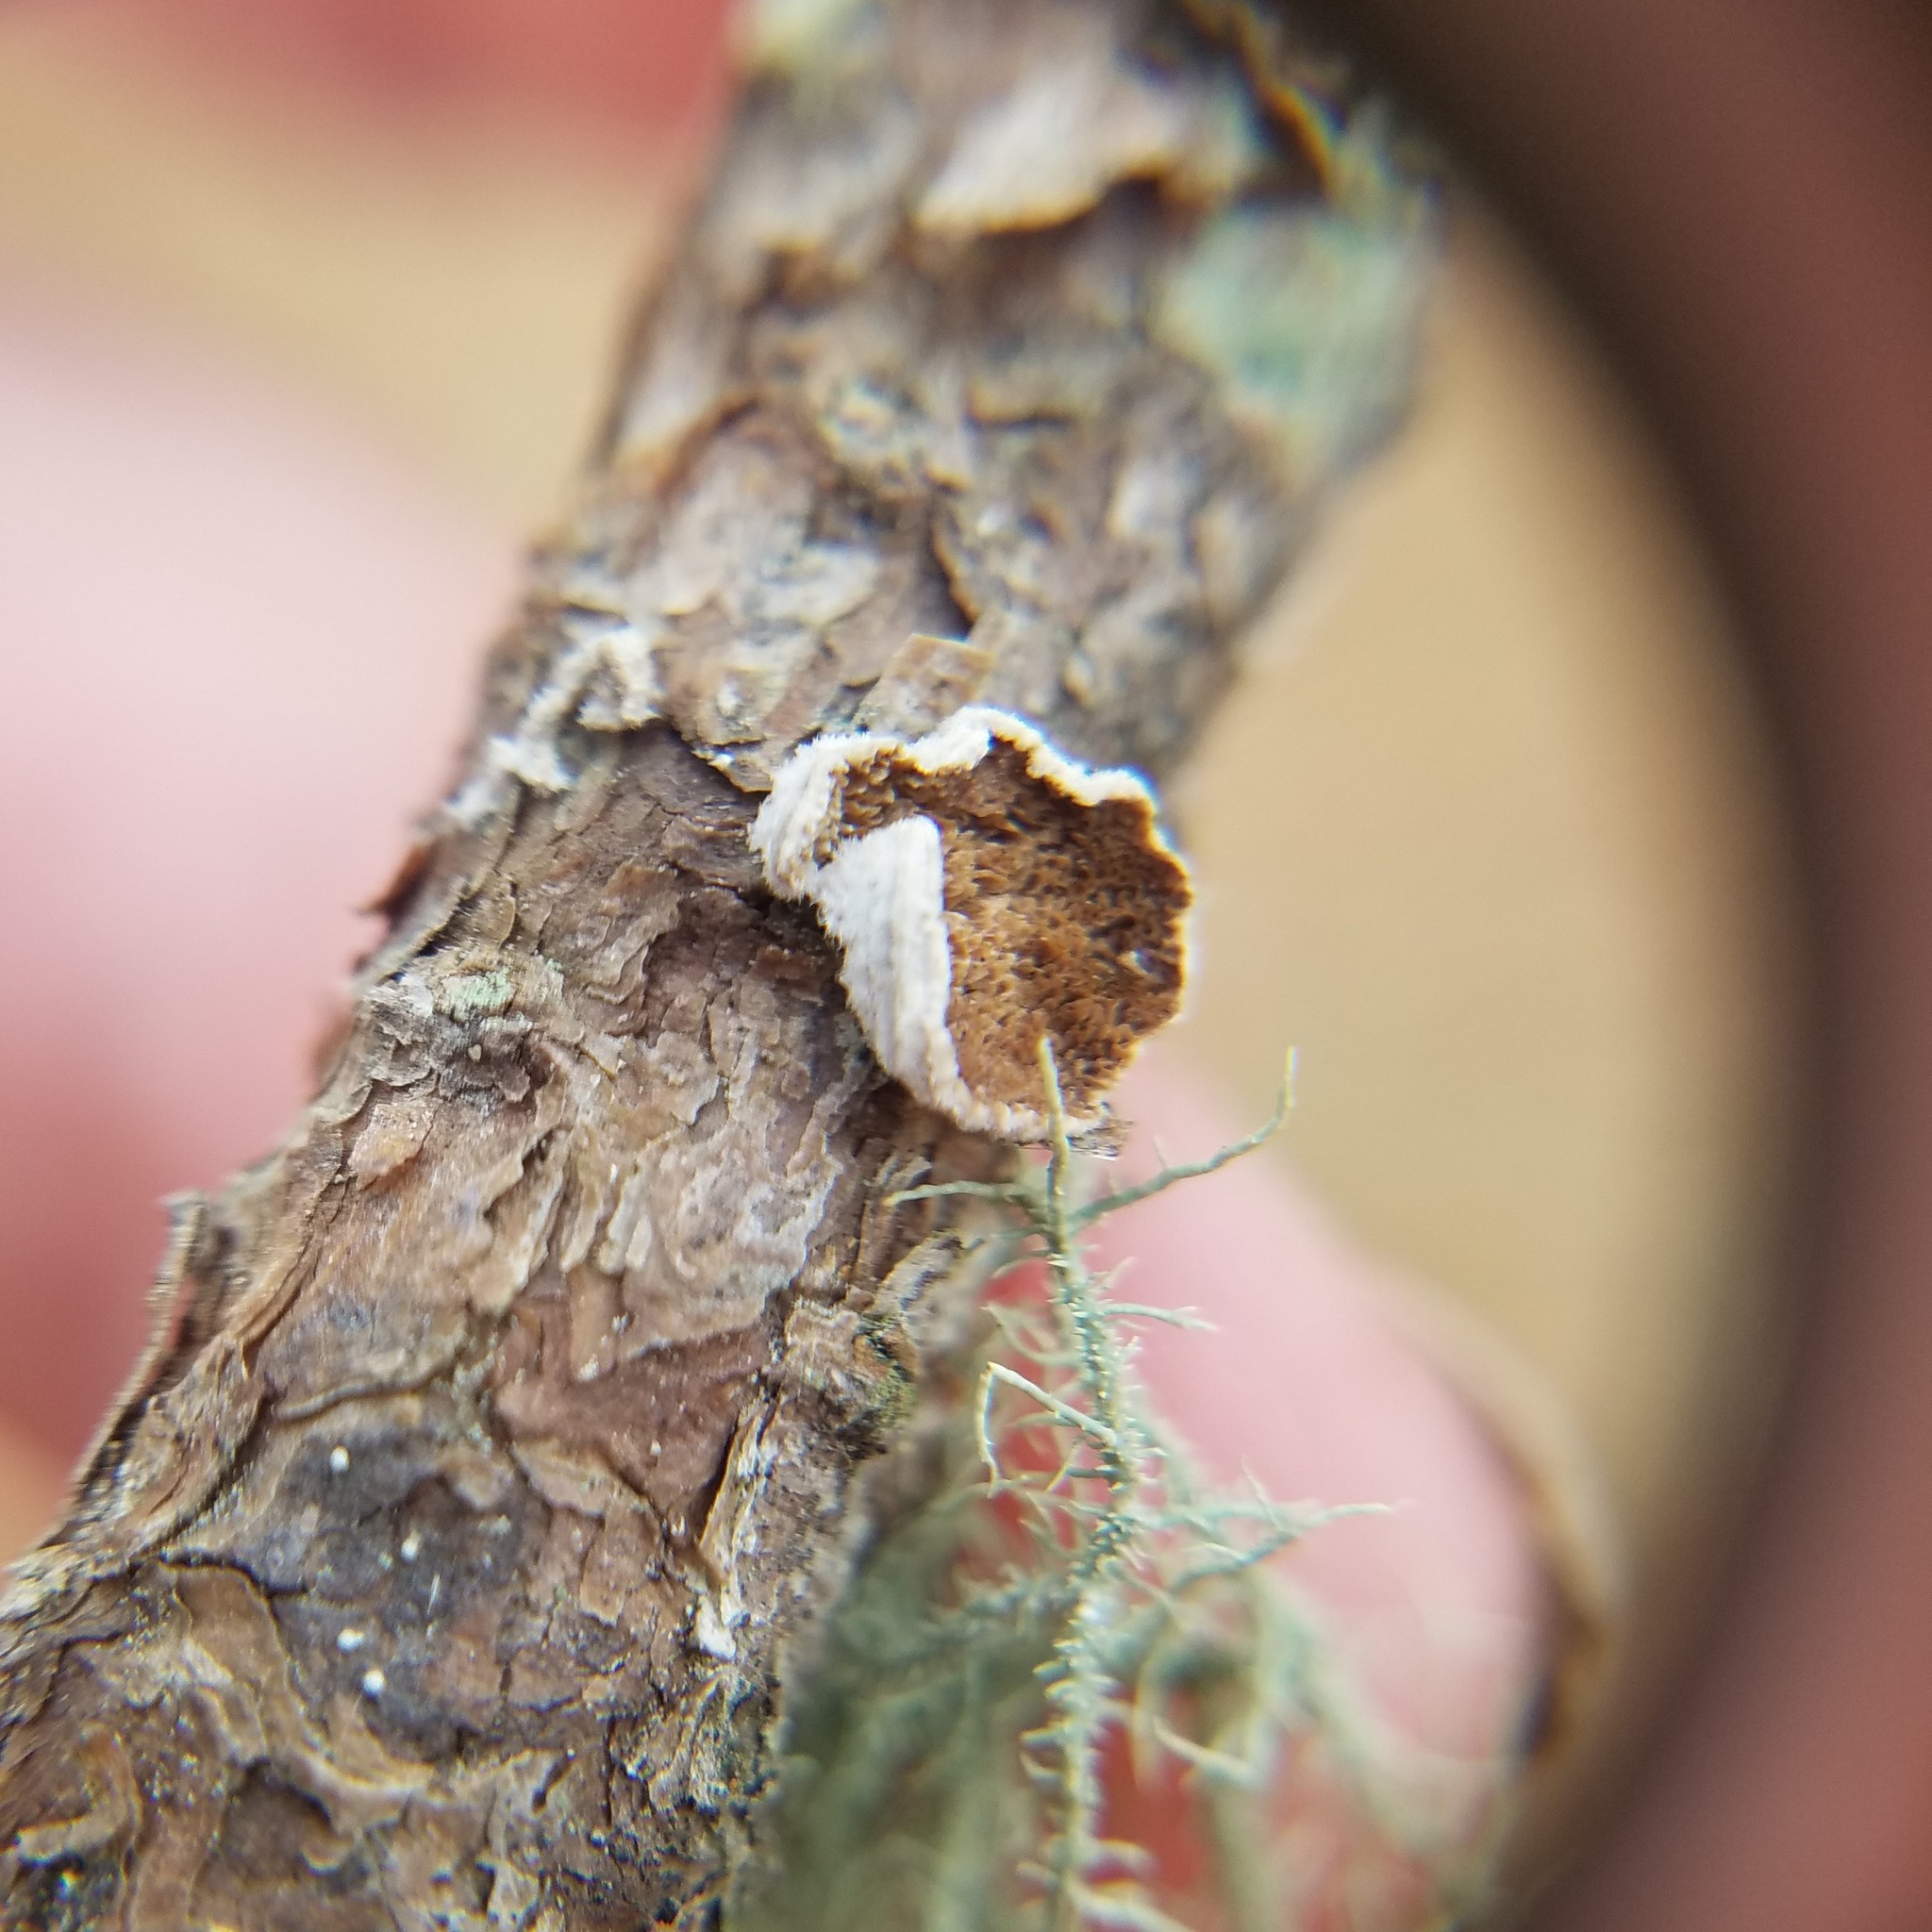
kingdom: Fungi
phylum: Basidiomycota
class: Agaricomycetes
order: Hymenochaetales
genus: Trichaptum
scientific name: Trichaptum fuscoviolaceum
